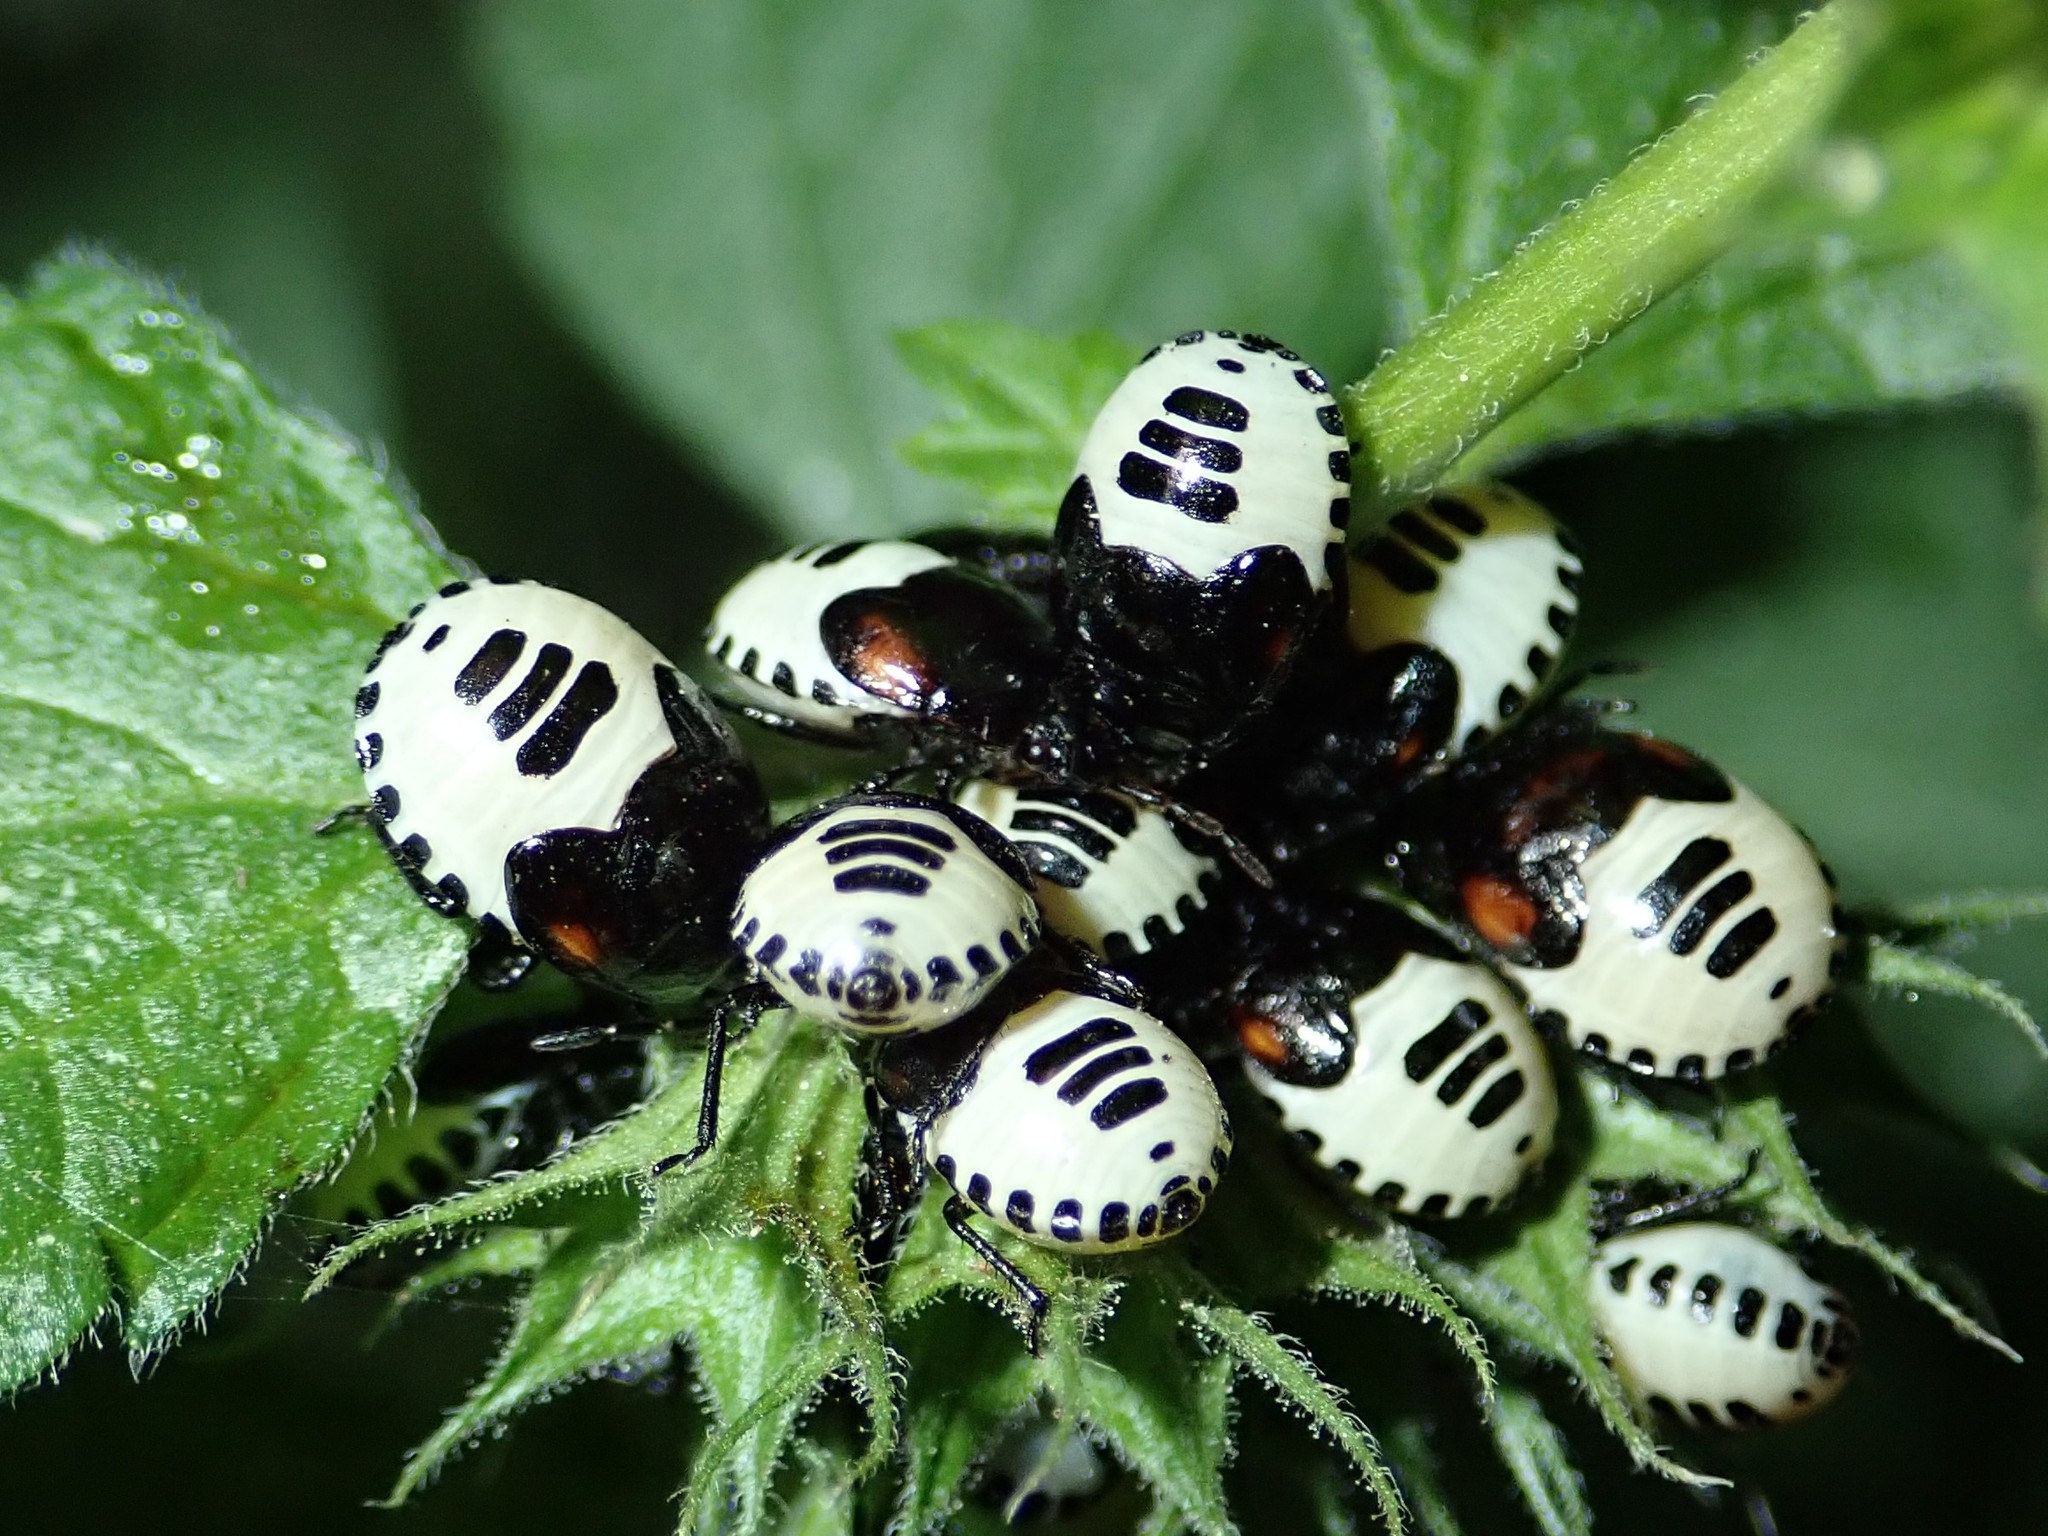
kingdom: Animalia
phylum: Arthropoda
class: Insecta
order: Hemiptera
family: Cydnidae
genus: Tritomegas
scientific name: Tritomegas sexmaculatus
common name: Rambur's pied shieldbug
